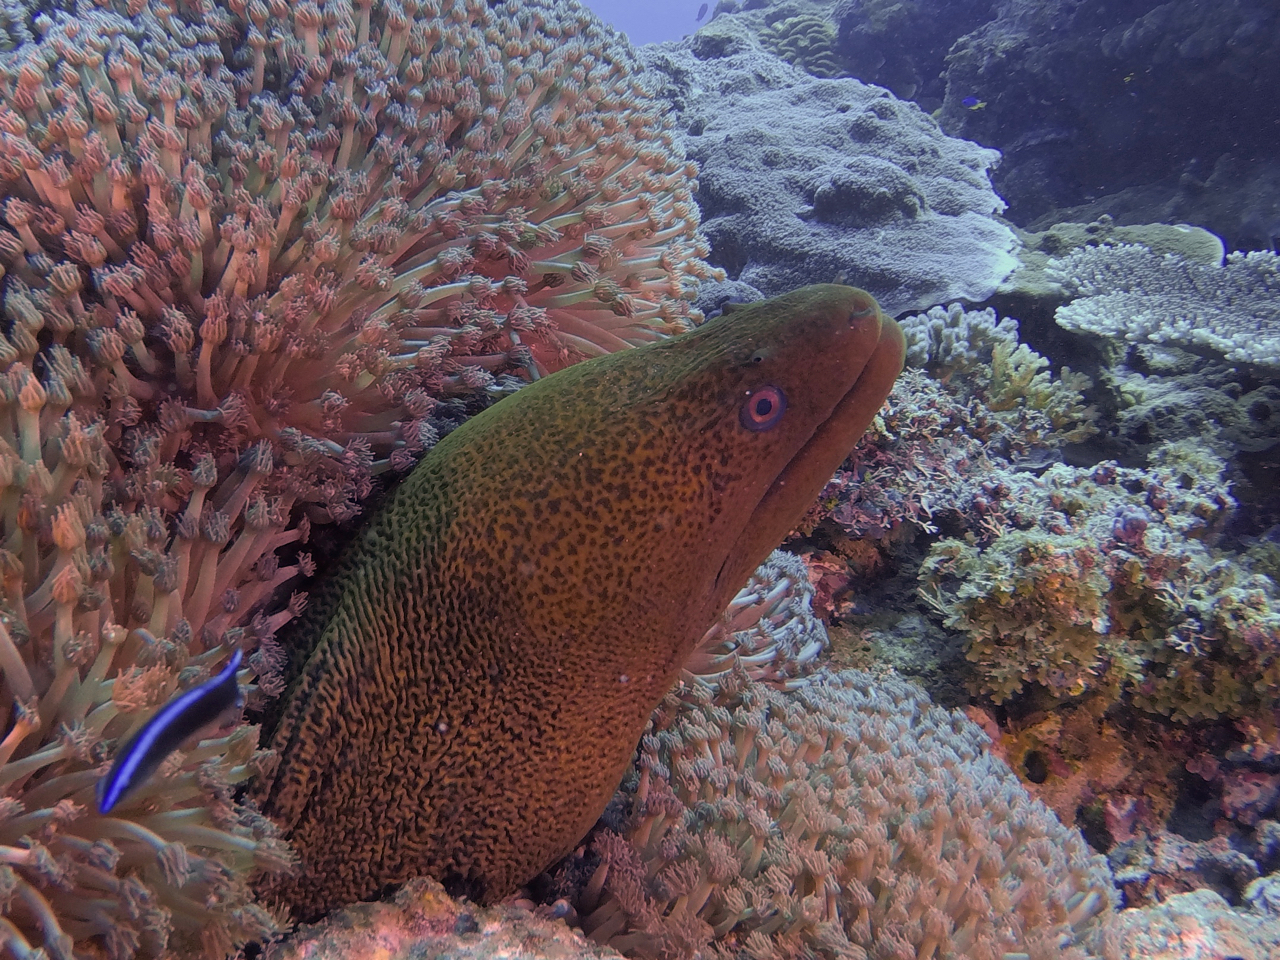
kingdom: Animalia
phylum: Chordata
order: Anguilliformes
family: Muraenidae
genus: Gymnothorax
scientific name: Gymnothorax javanicus
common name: Giant moray
